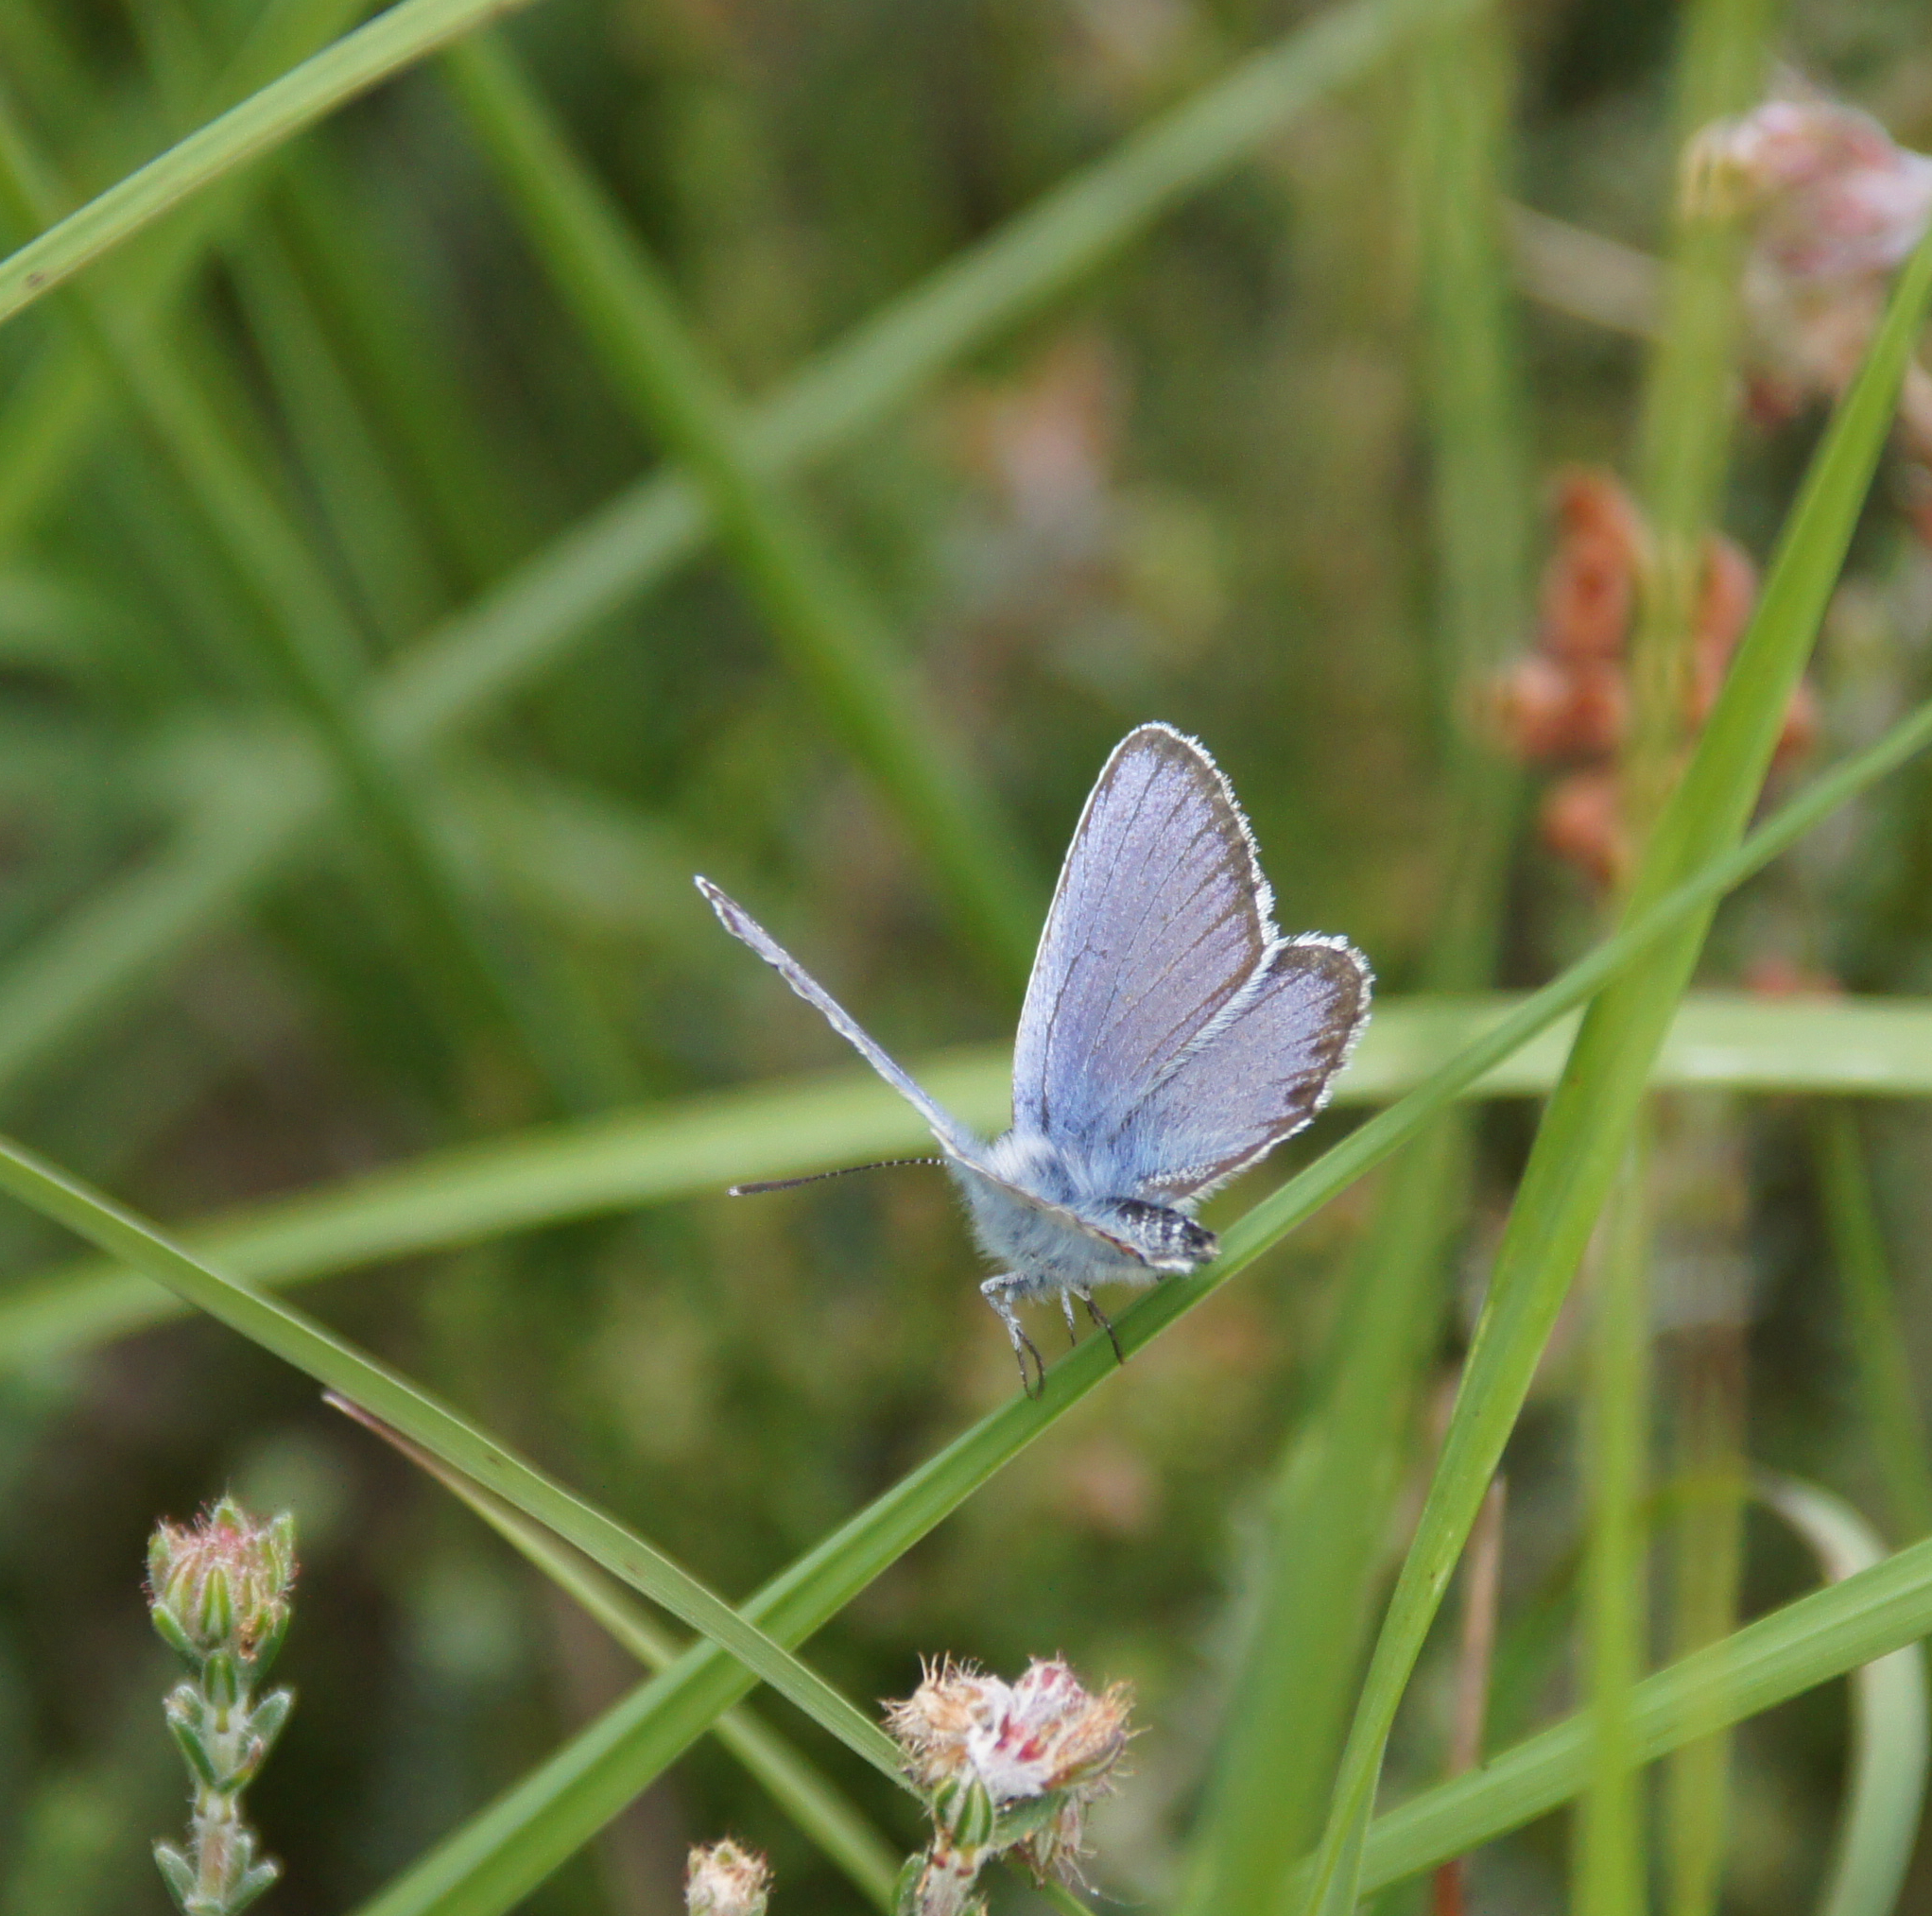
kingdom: Animalia
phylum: Arthropoda
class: Insecta
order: Lepidoptera
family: Lycaenidae
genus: Plebejus
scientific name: Plebejus argus
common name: Silver-studded blue
